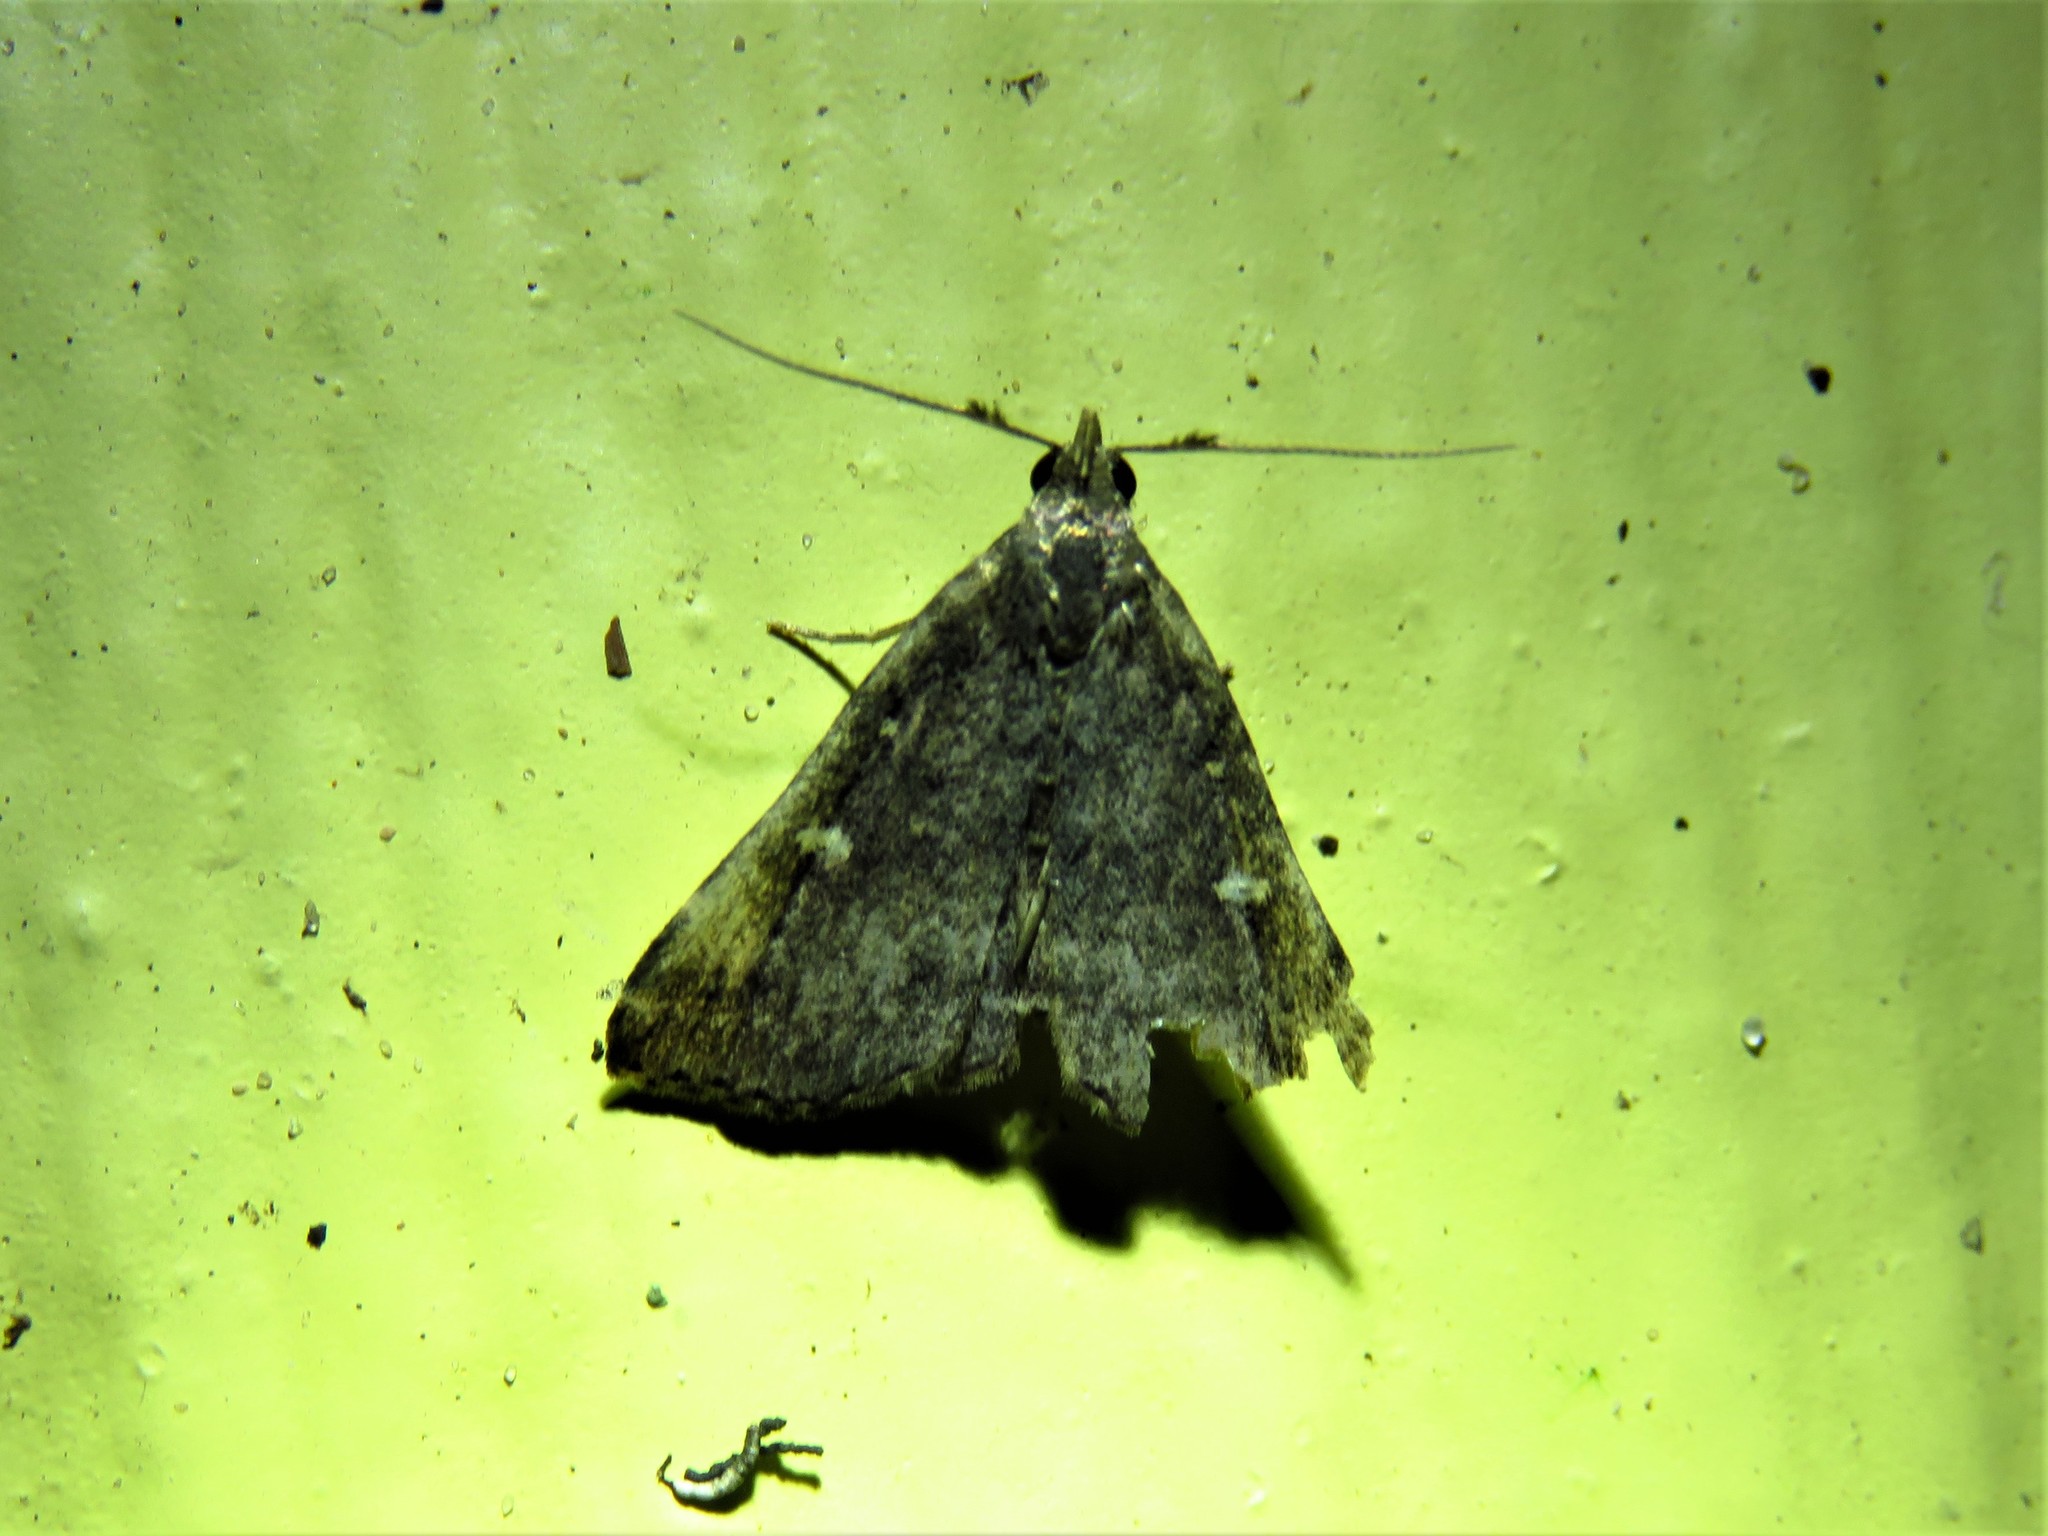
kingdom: Animalia
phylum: Arthropoda
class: Insecta
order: Lepidoptera
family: Erebidae
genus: Tetanolita
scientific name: Tetanolita mynesalis
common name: Smoky tetanolita moth
